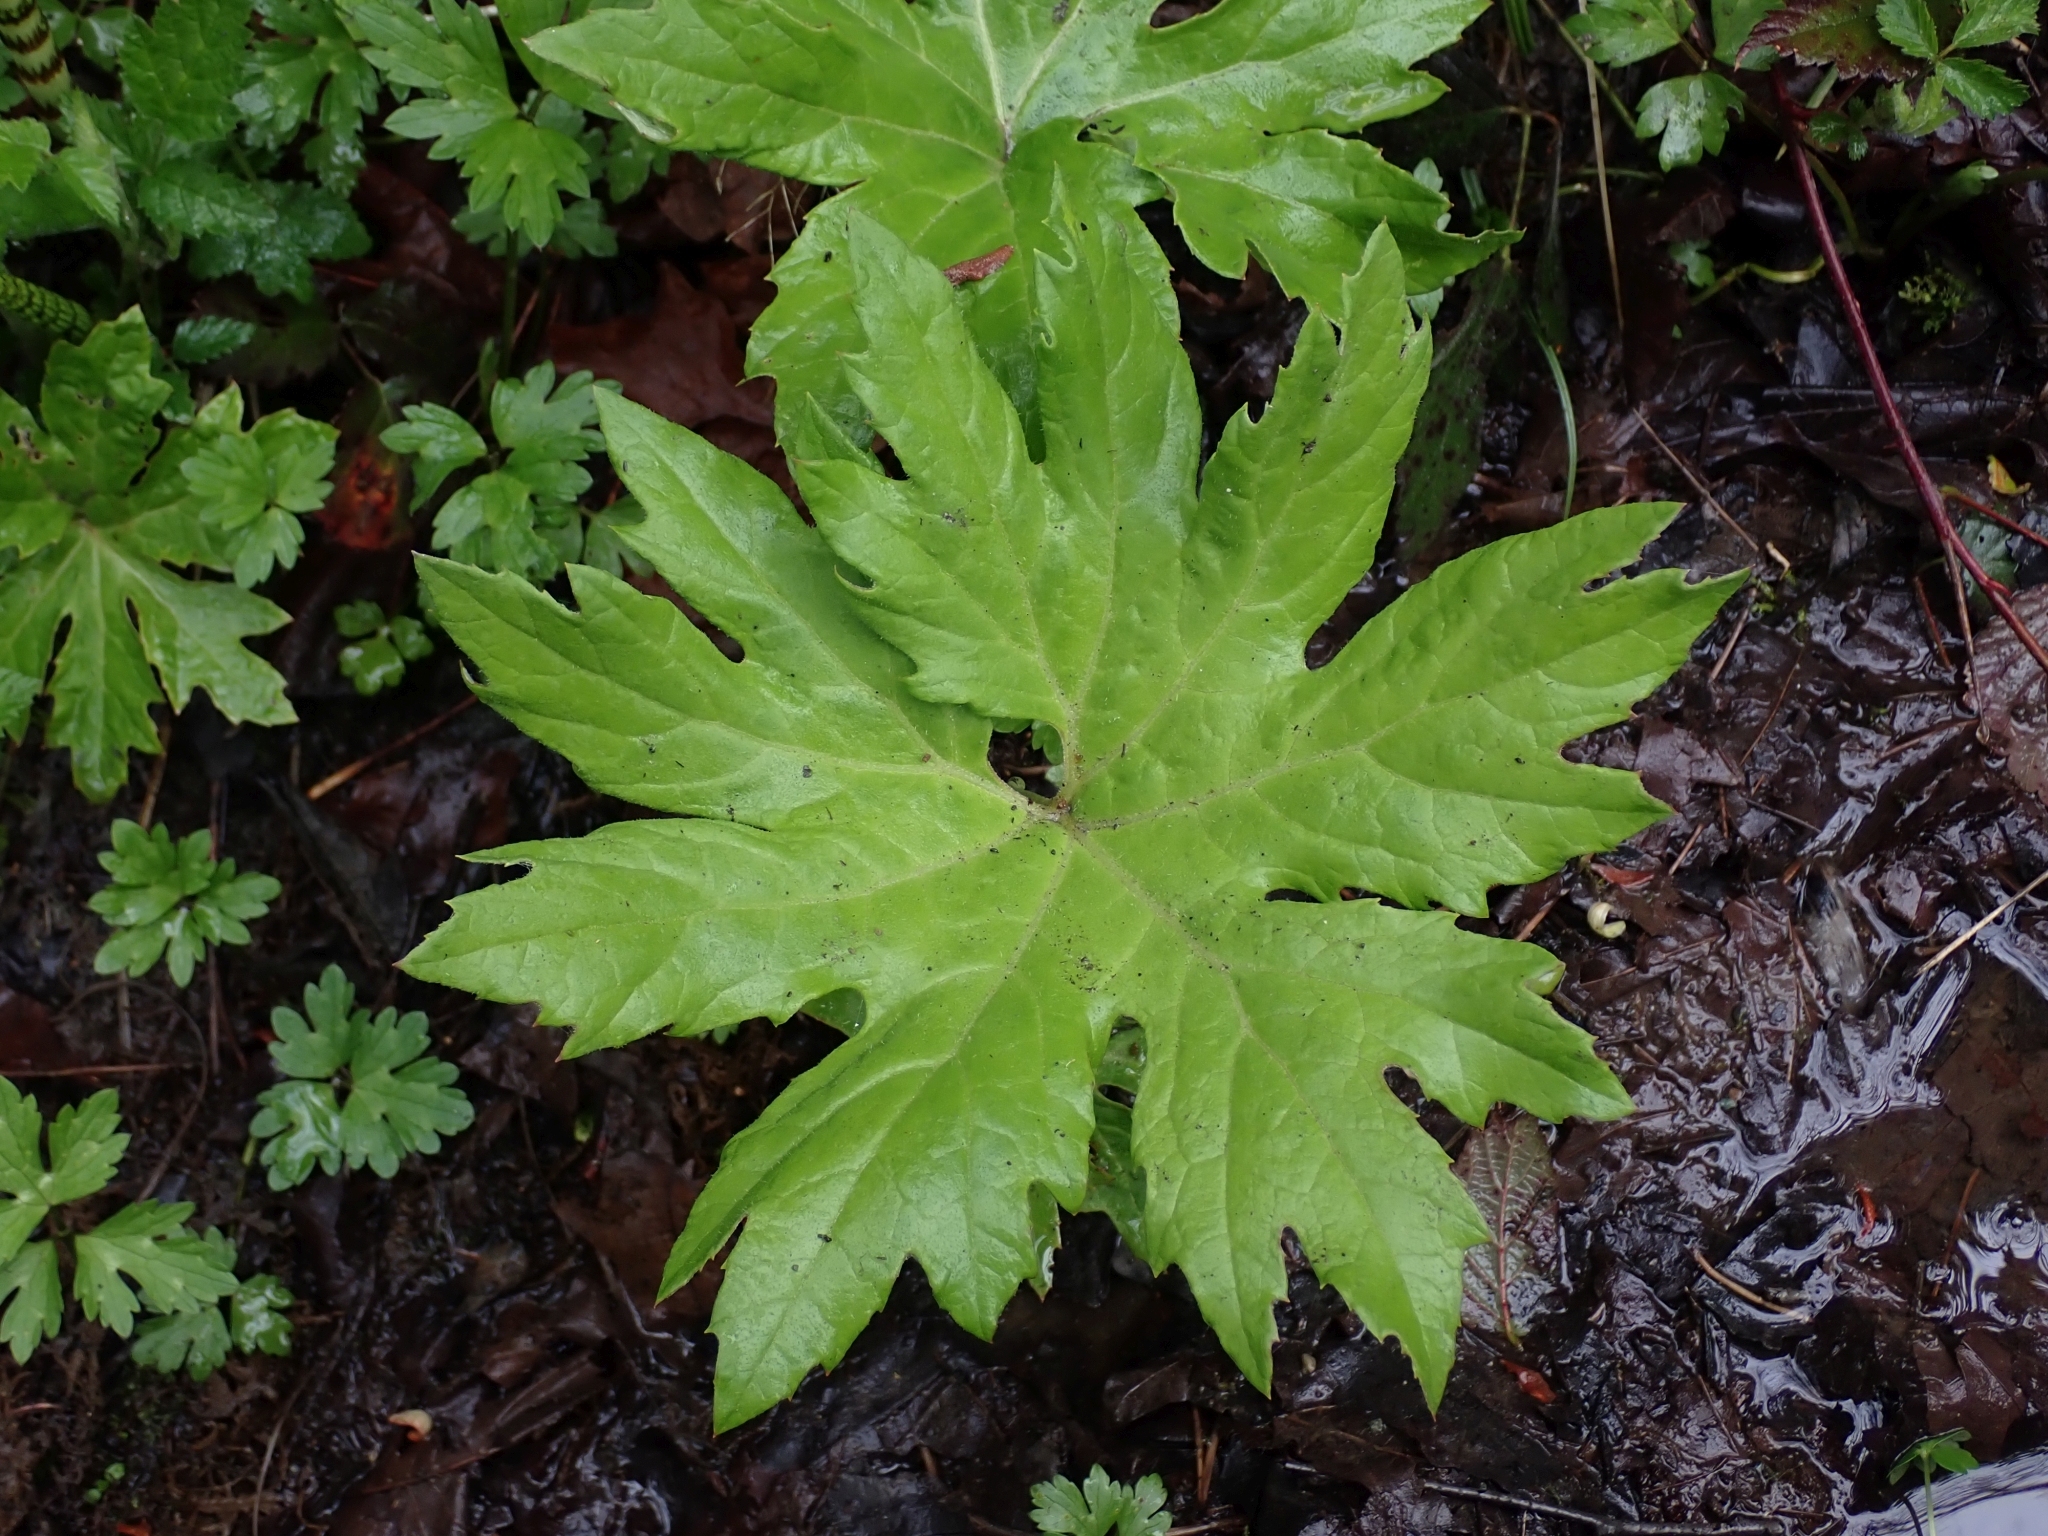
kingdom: Plantae
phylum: Tracheophyta
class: Magnoliopsida
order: Asterales
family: Asteraceae
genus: Petasites
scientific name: Petasites frigidus
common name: Arctic butterbur
